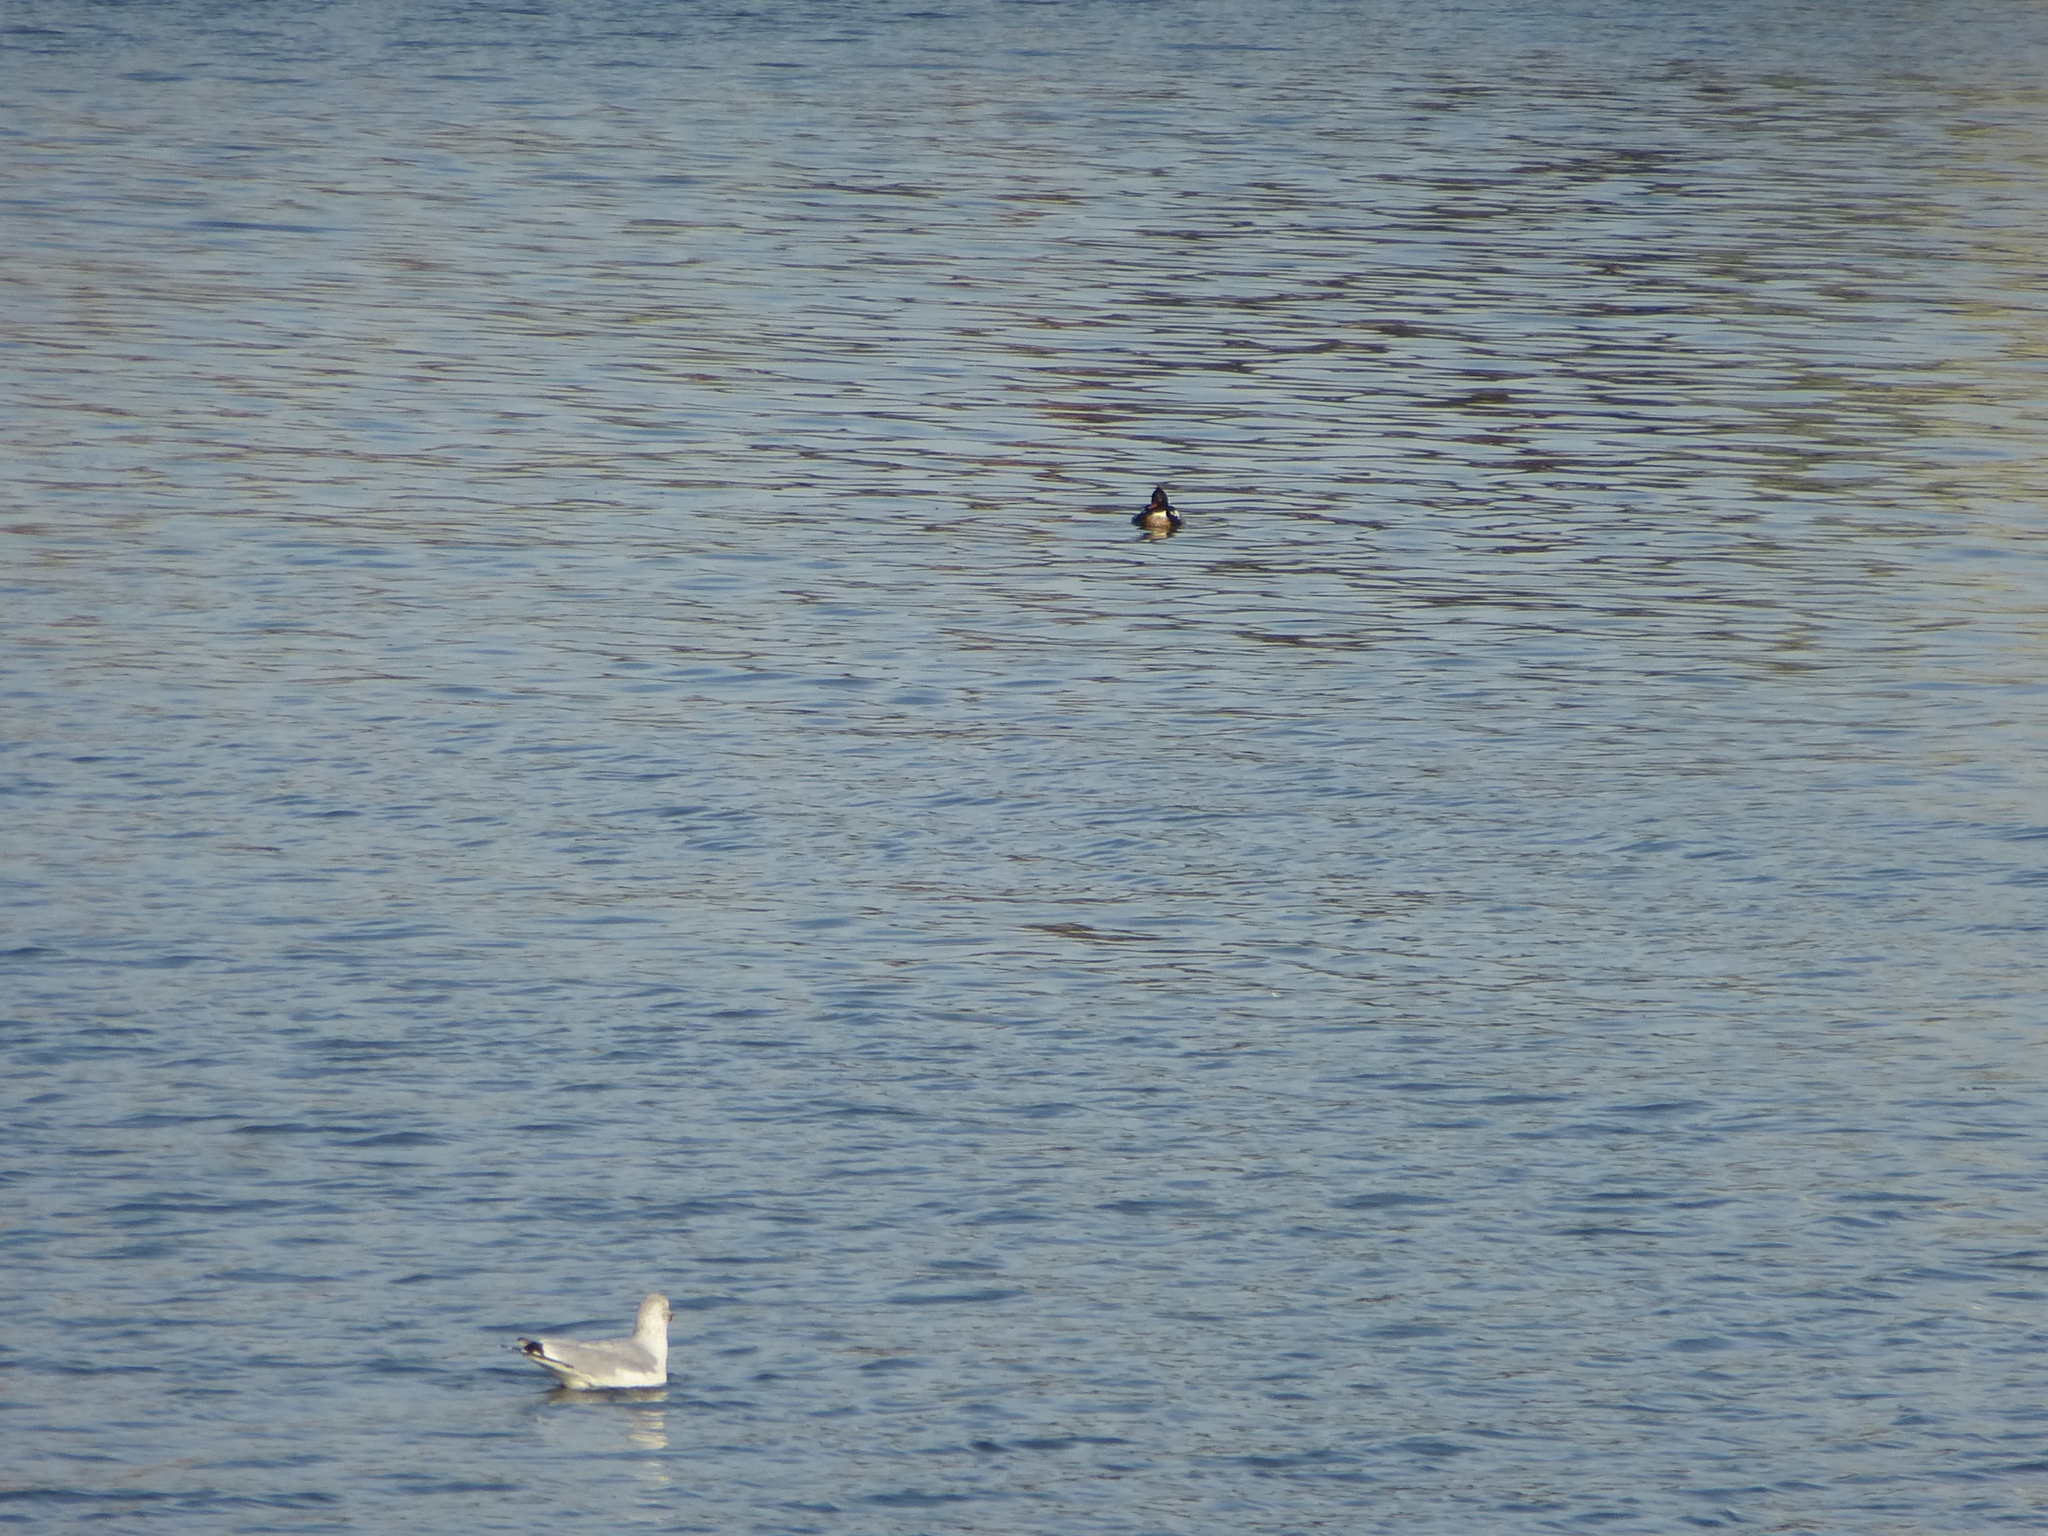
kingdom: Animalia
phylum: Chordata
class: Aves
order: Anseriformes
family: Anatidae
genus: Mergus
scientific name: Mergus serrator
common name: Red-breasted merganser
